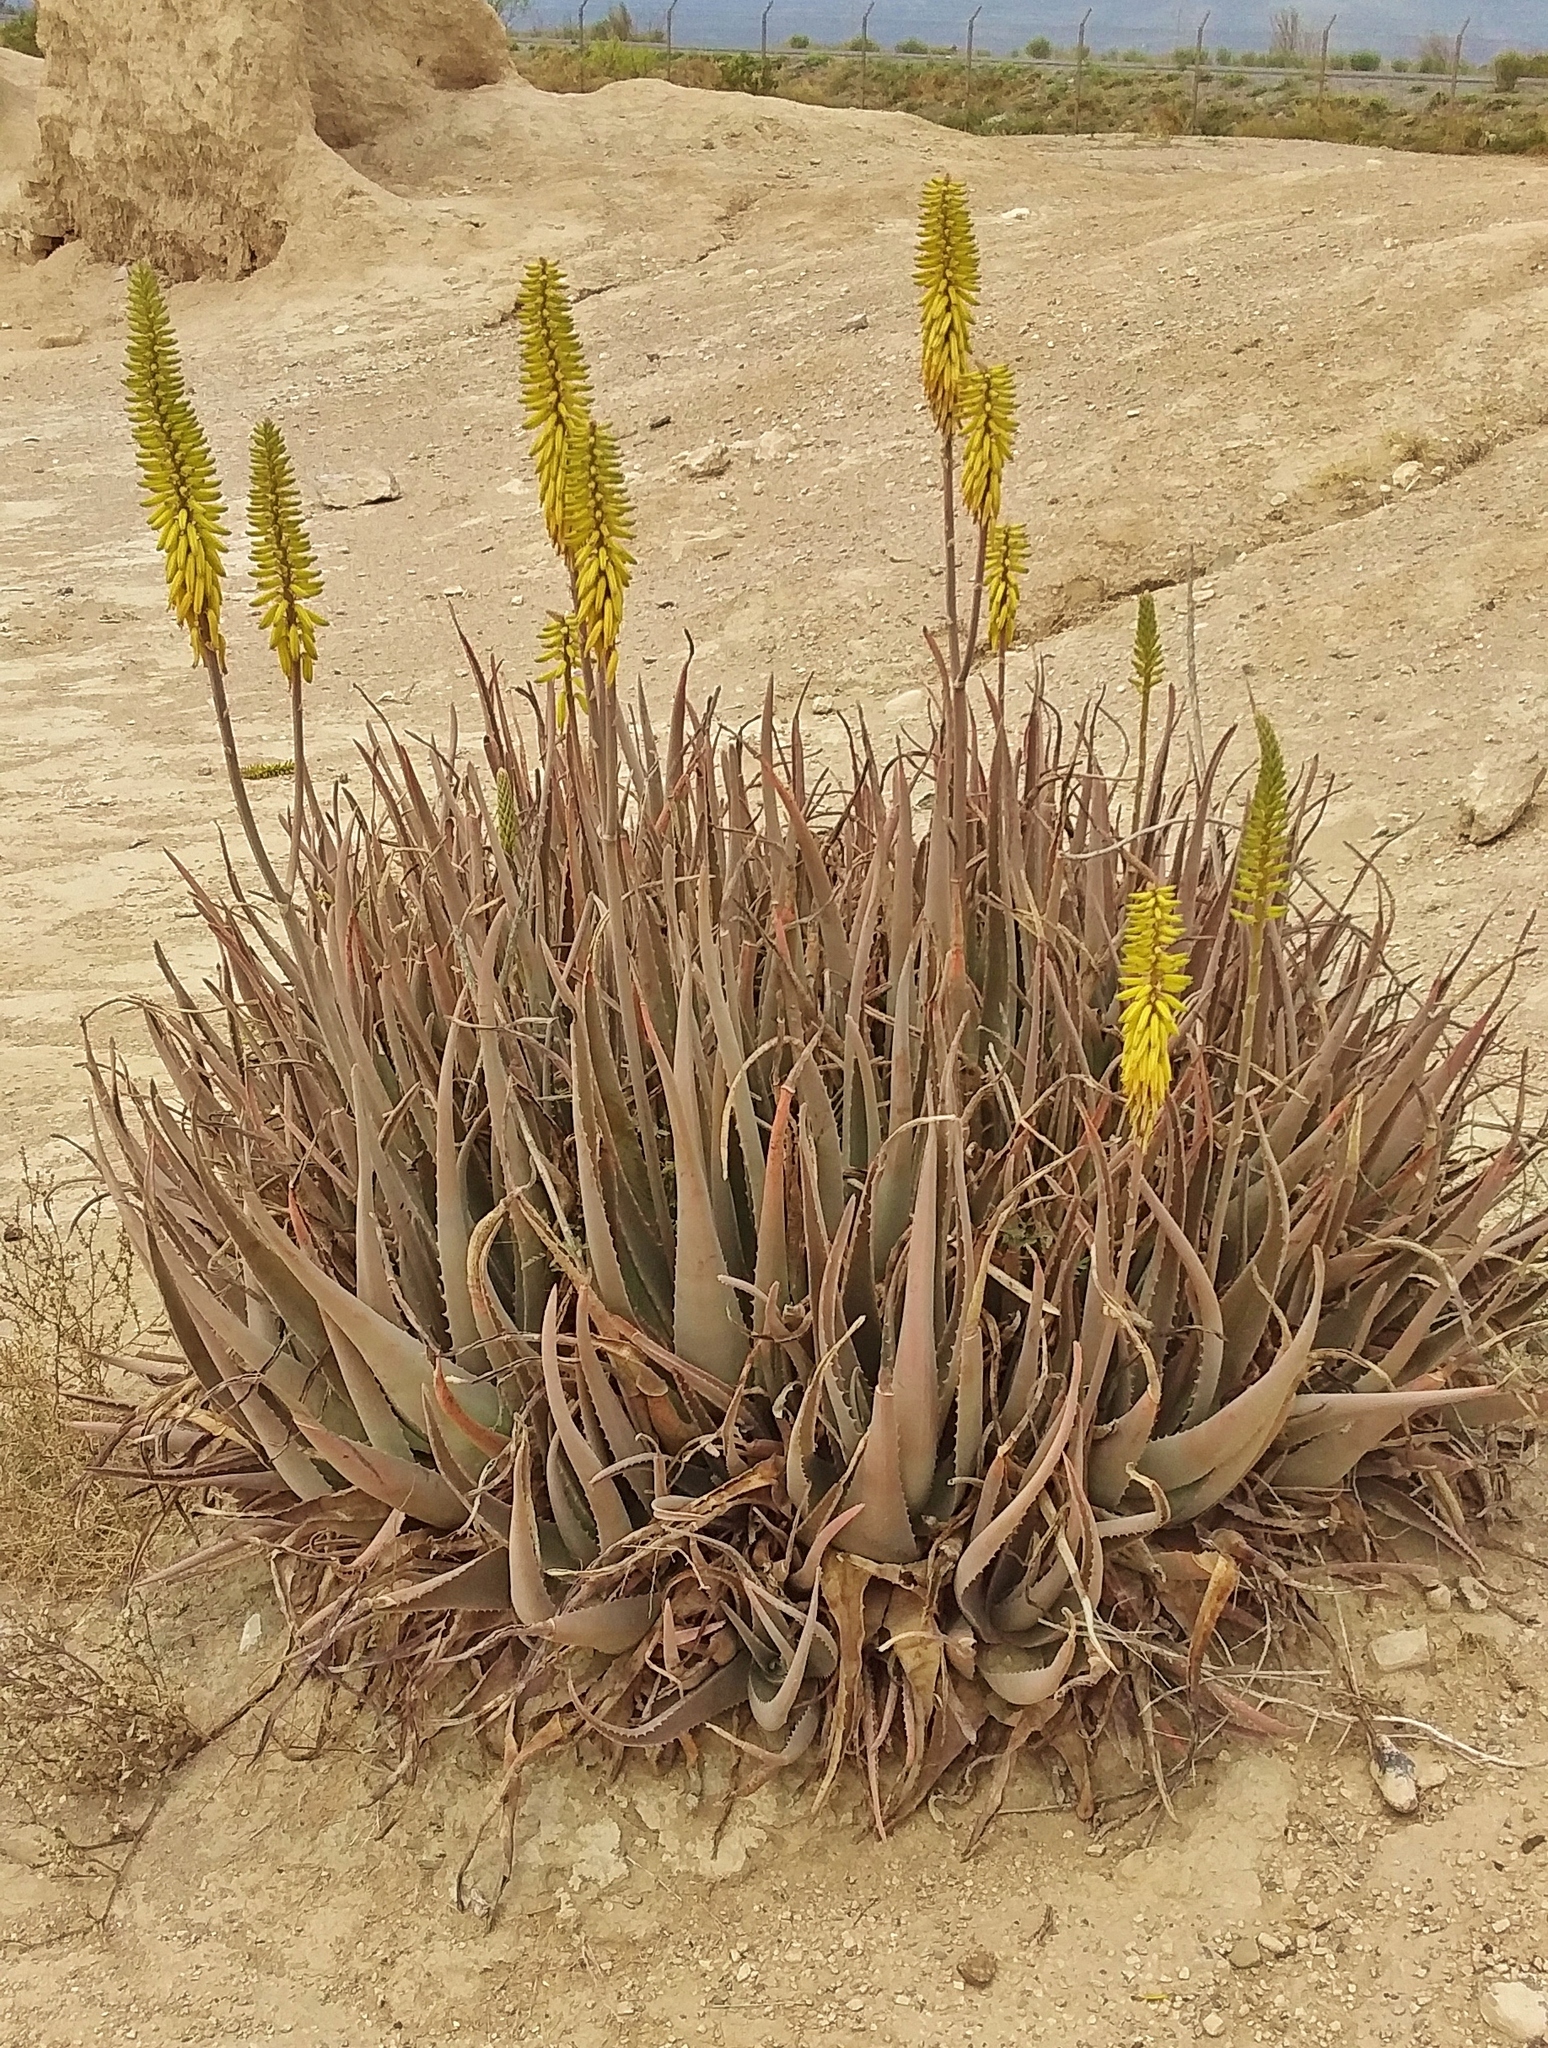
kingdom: Plantae
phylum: Tracheophyta
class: Liliopsida
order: Asparagales
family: Asphodelaceae
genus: Aloe
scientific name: Aloe vera
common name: Barbados aloe
